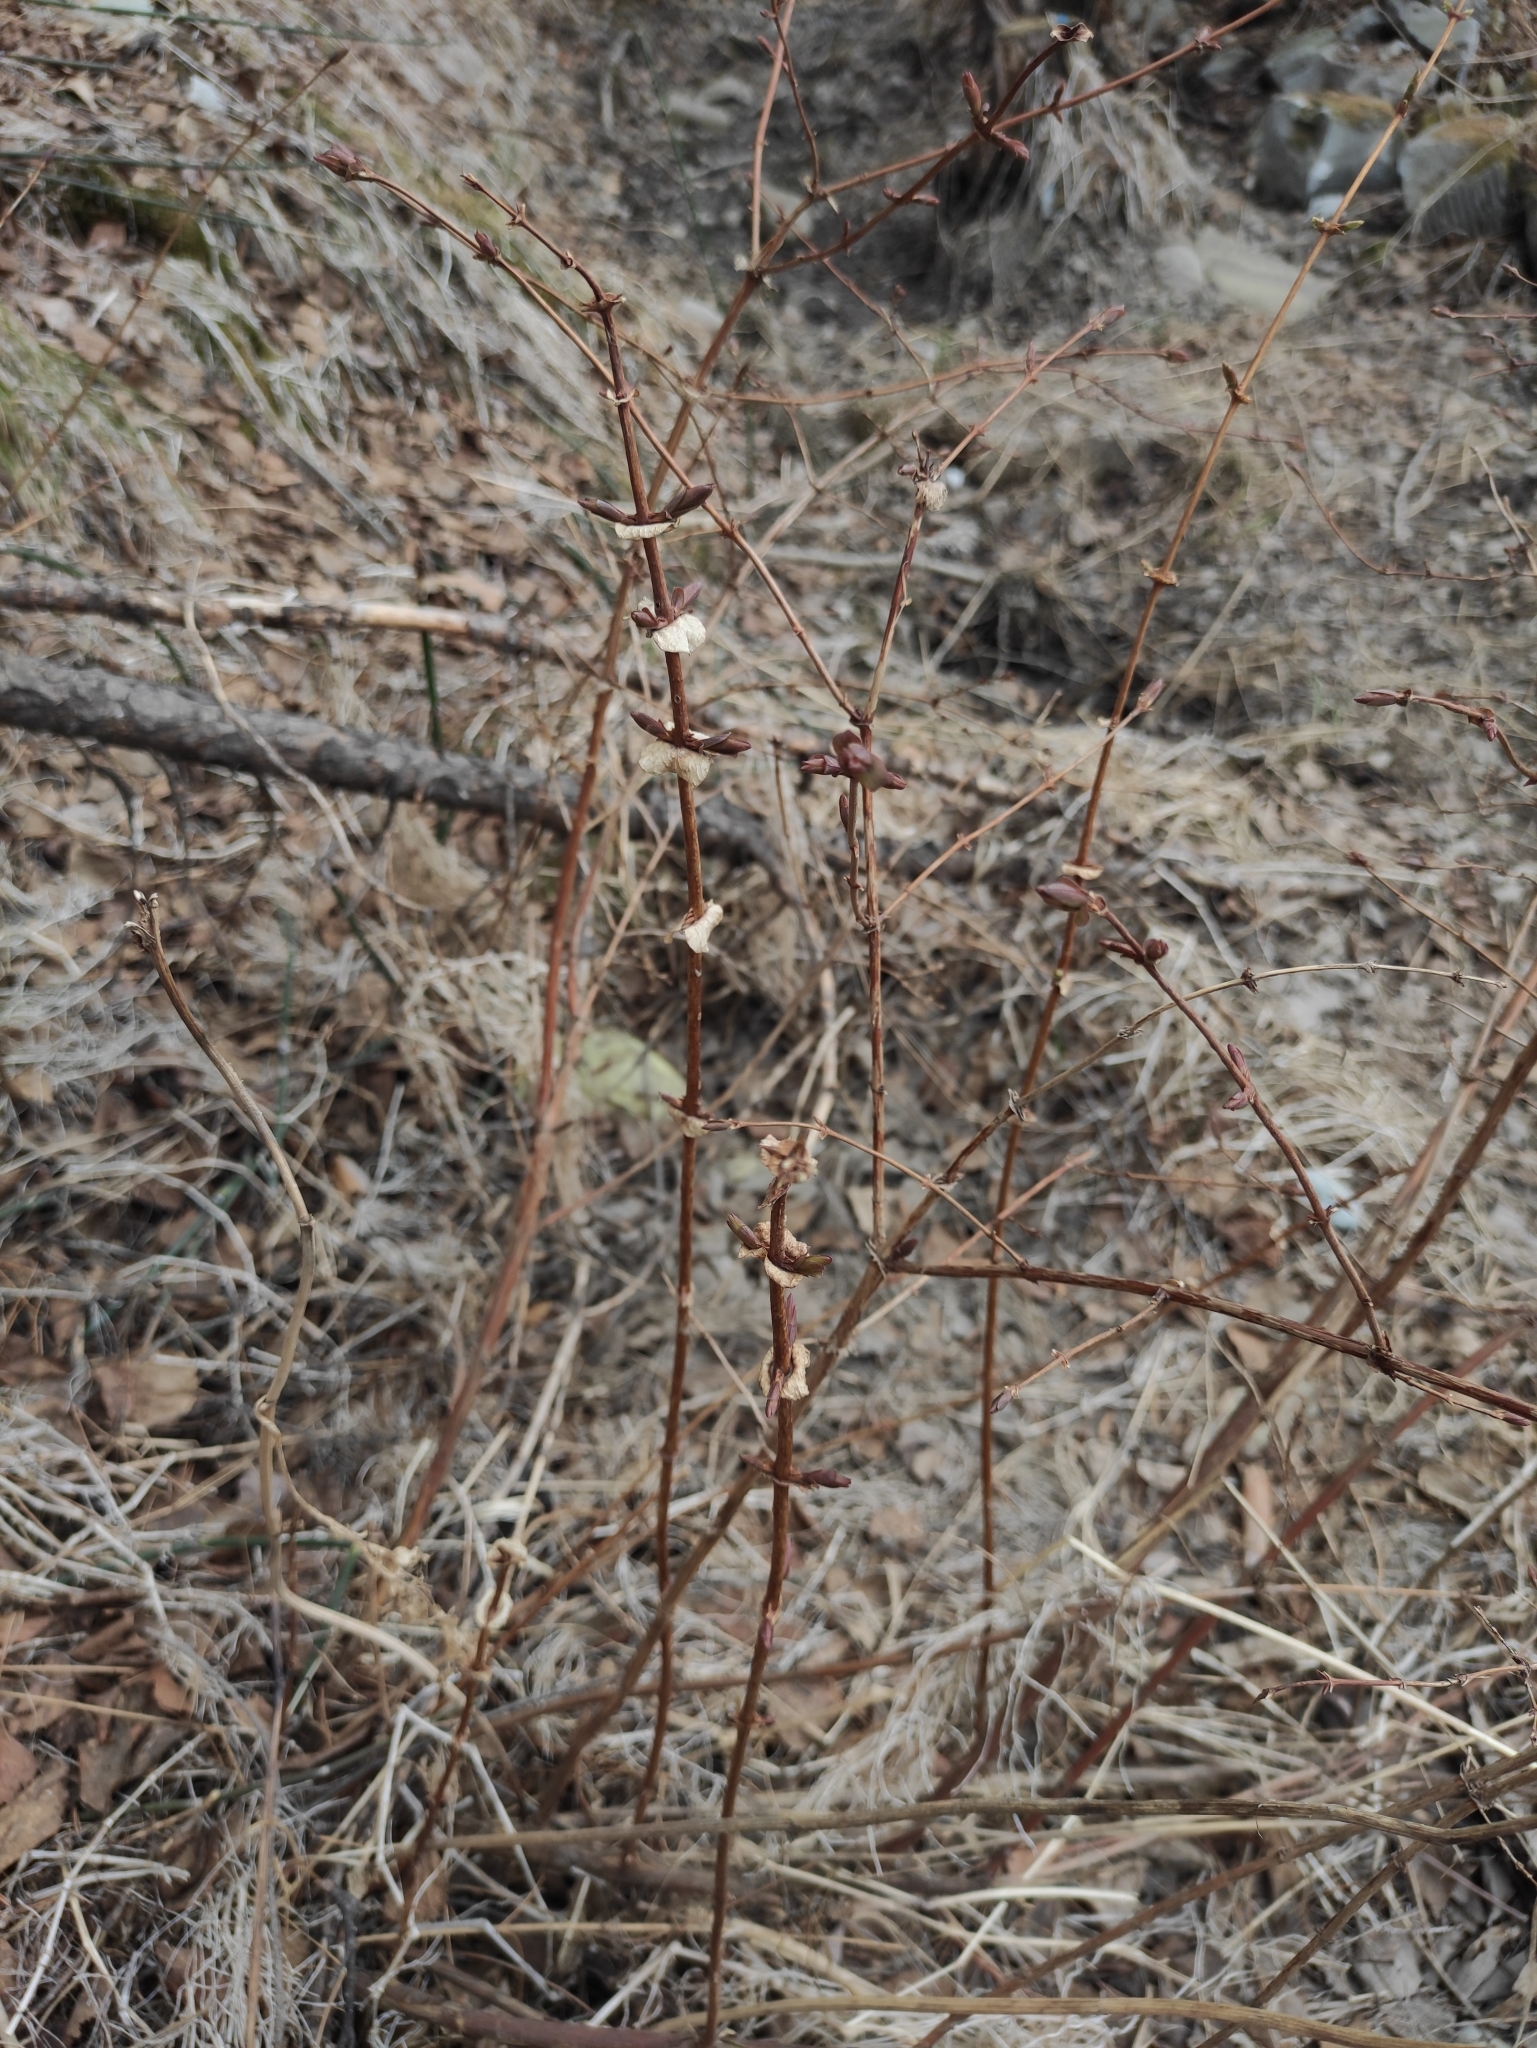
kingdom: Plantae
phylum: Tracheophyta
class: Magnoliopsida
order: Dipsacales
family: Caprifoliaceae
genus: Lonicera
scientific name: Lonicera caerulea
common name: Blue honeysuckle
